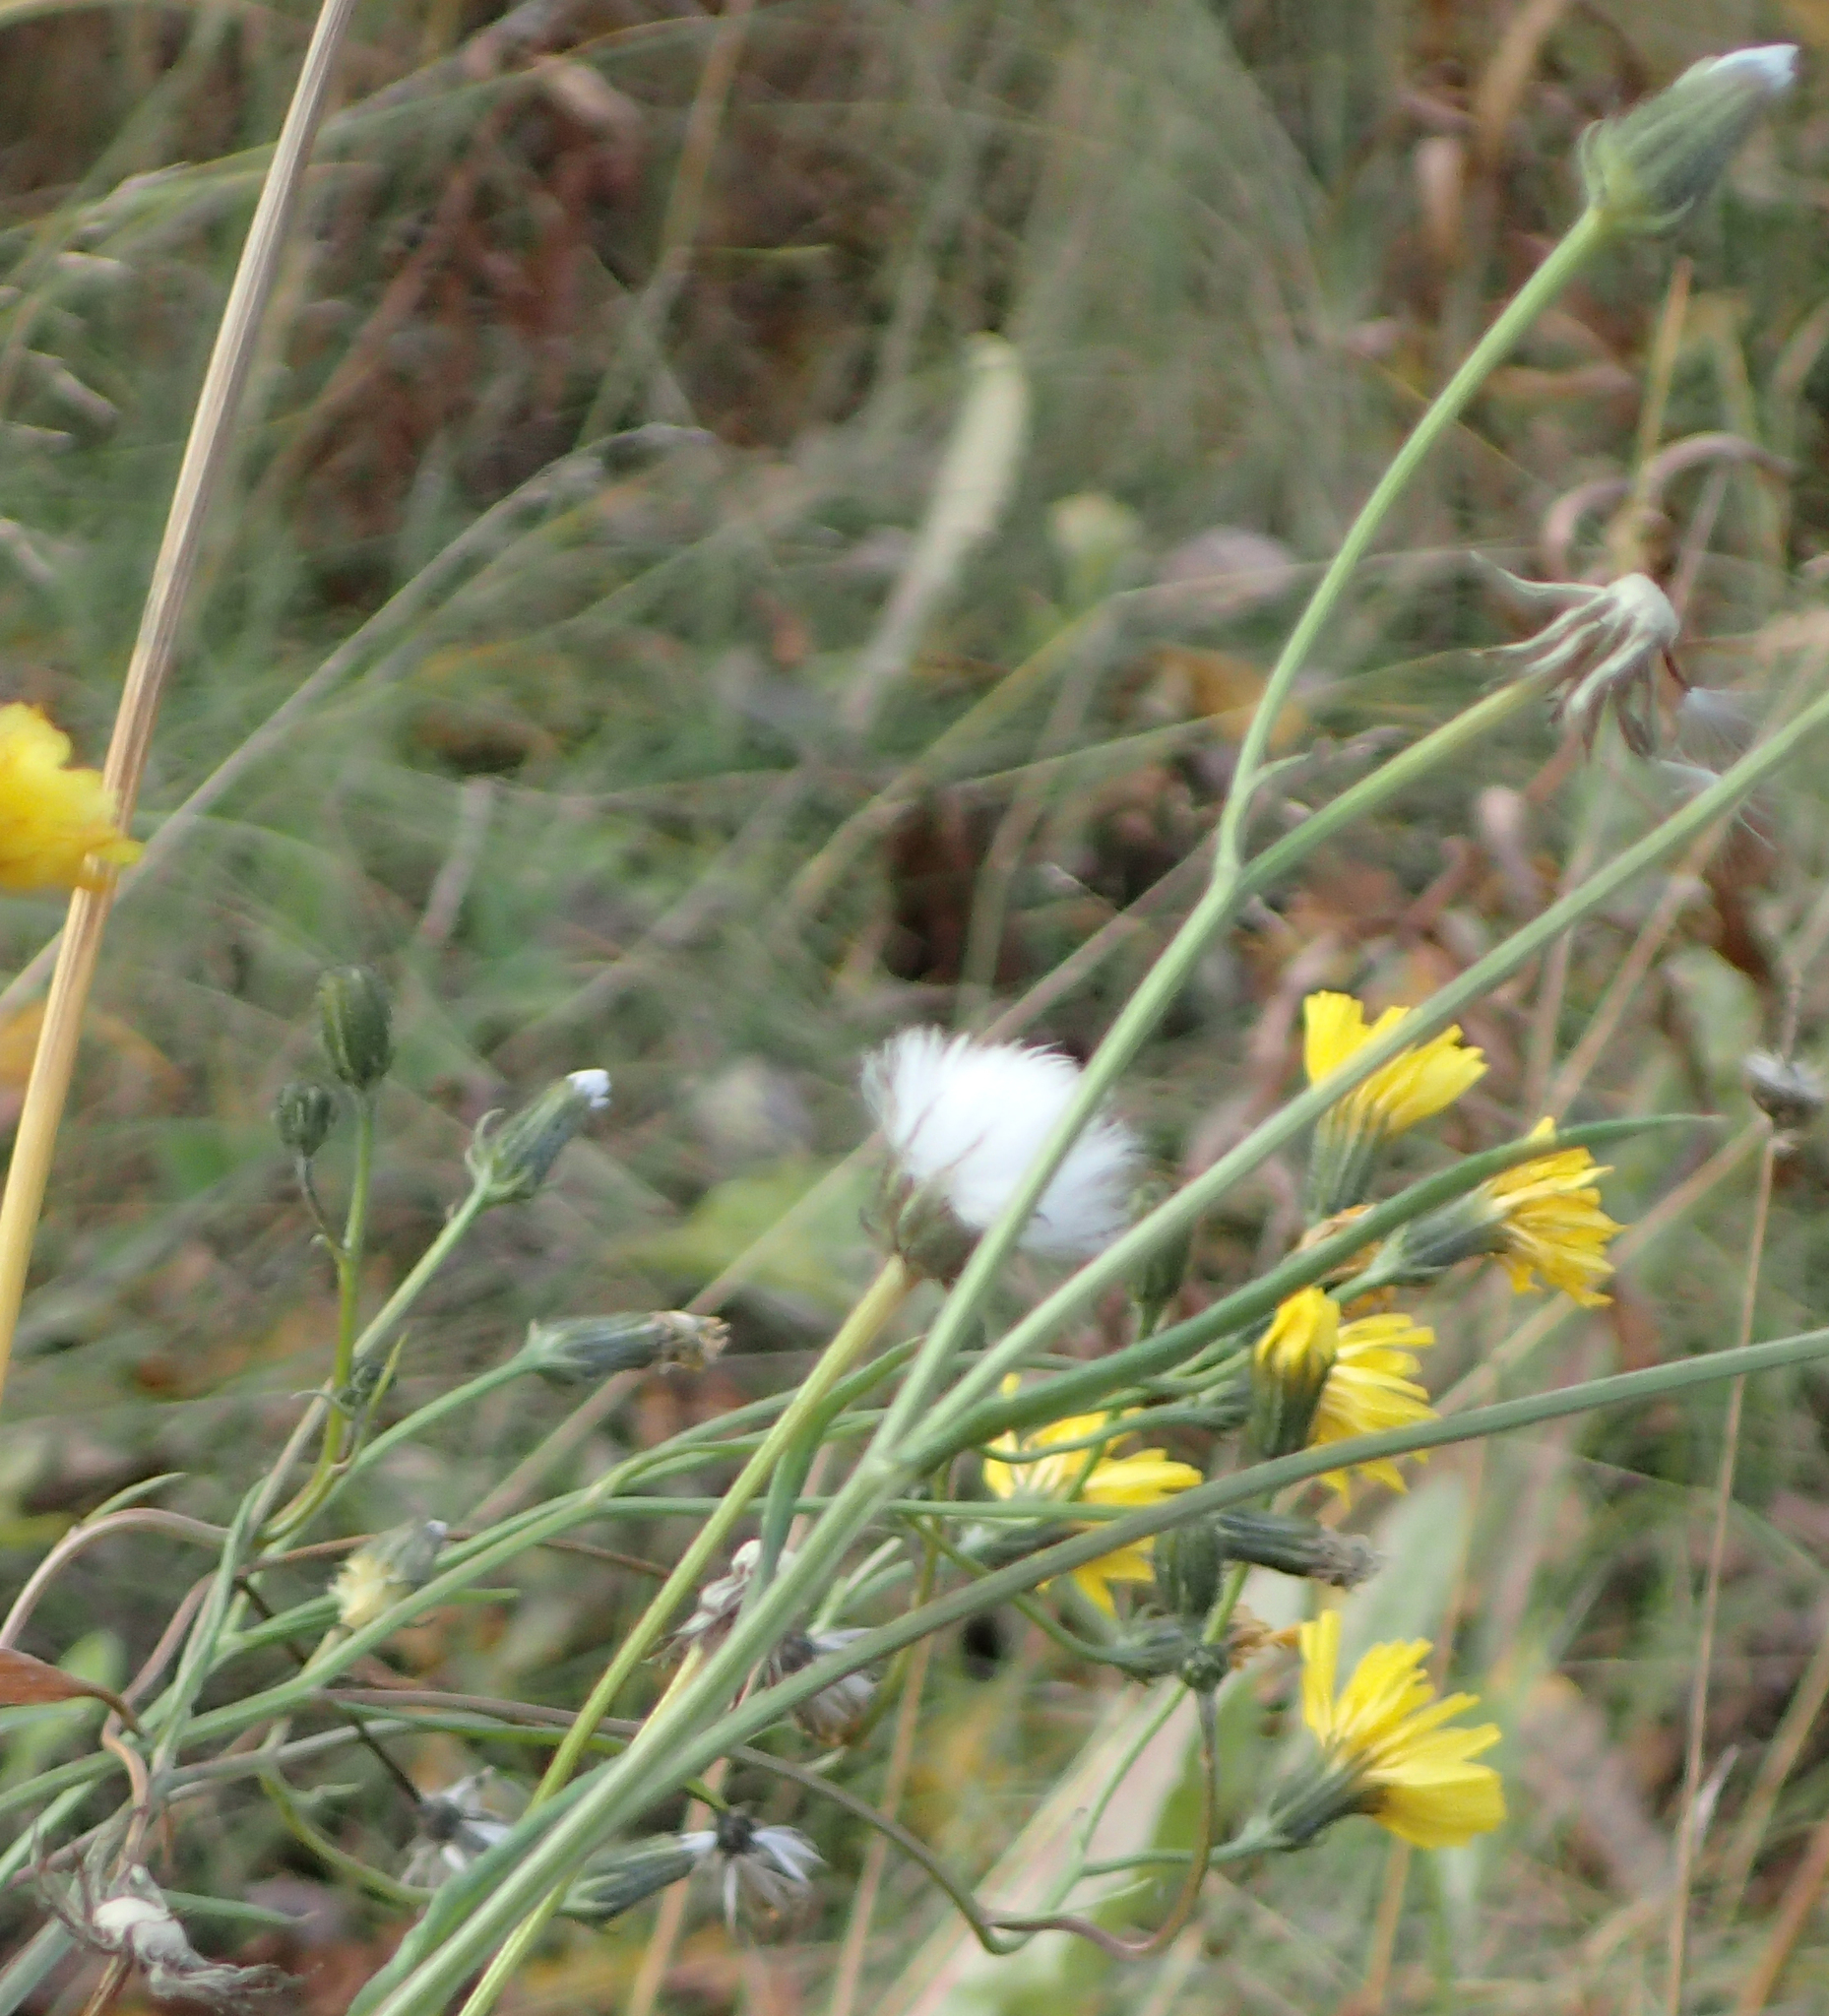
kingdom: Plantae
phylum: Tracheophyta
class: Magnoliopsida
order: Asterales
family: Asteraceae
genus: Crepis
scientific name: Crepis tectorum
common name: Narrow-leaved hawk's-beard
